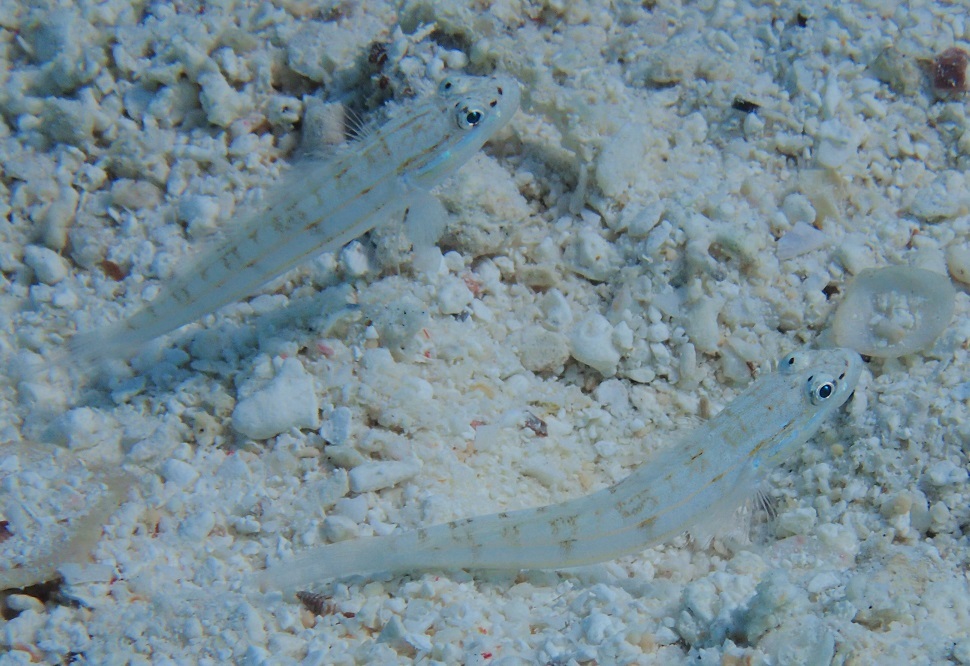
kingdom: Animalia
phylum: Chordata
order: Perciformes
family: Gobiidae
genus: Valenciennea
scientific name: Valenciennea parva
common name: Little glidergoby
